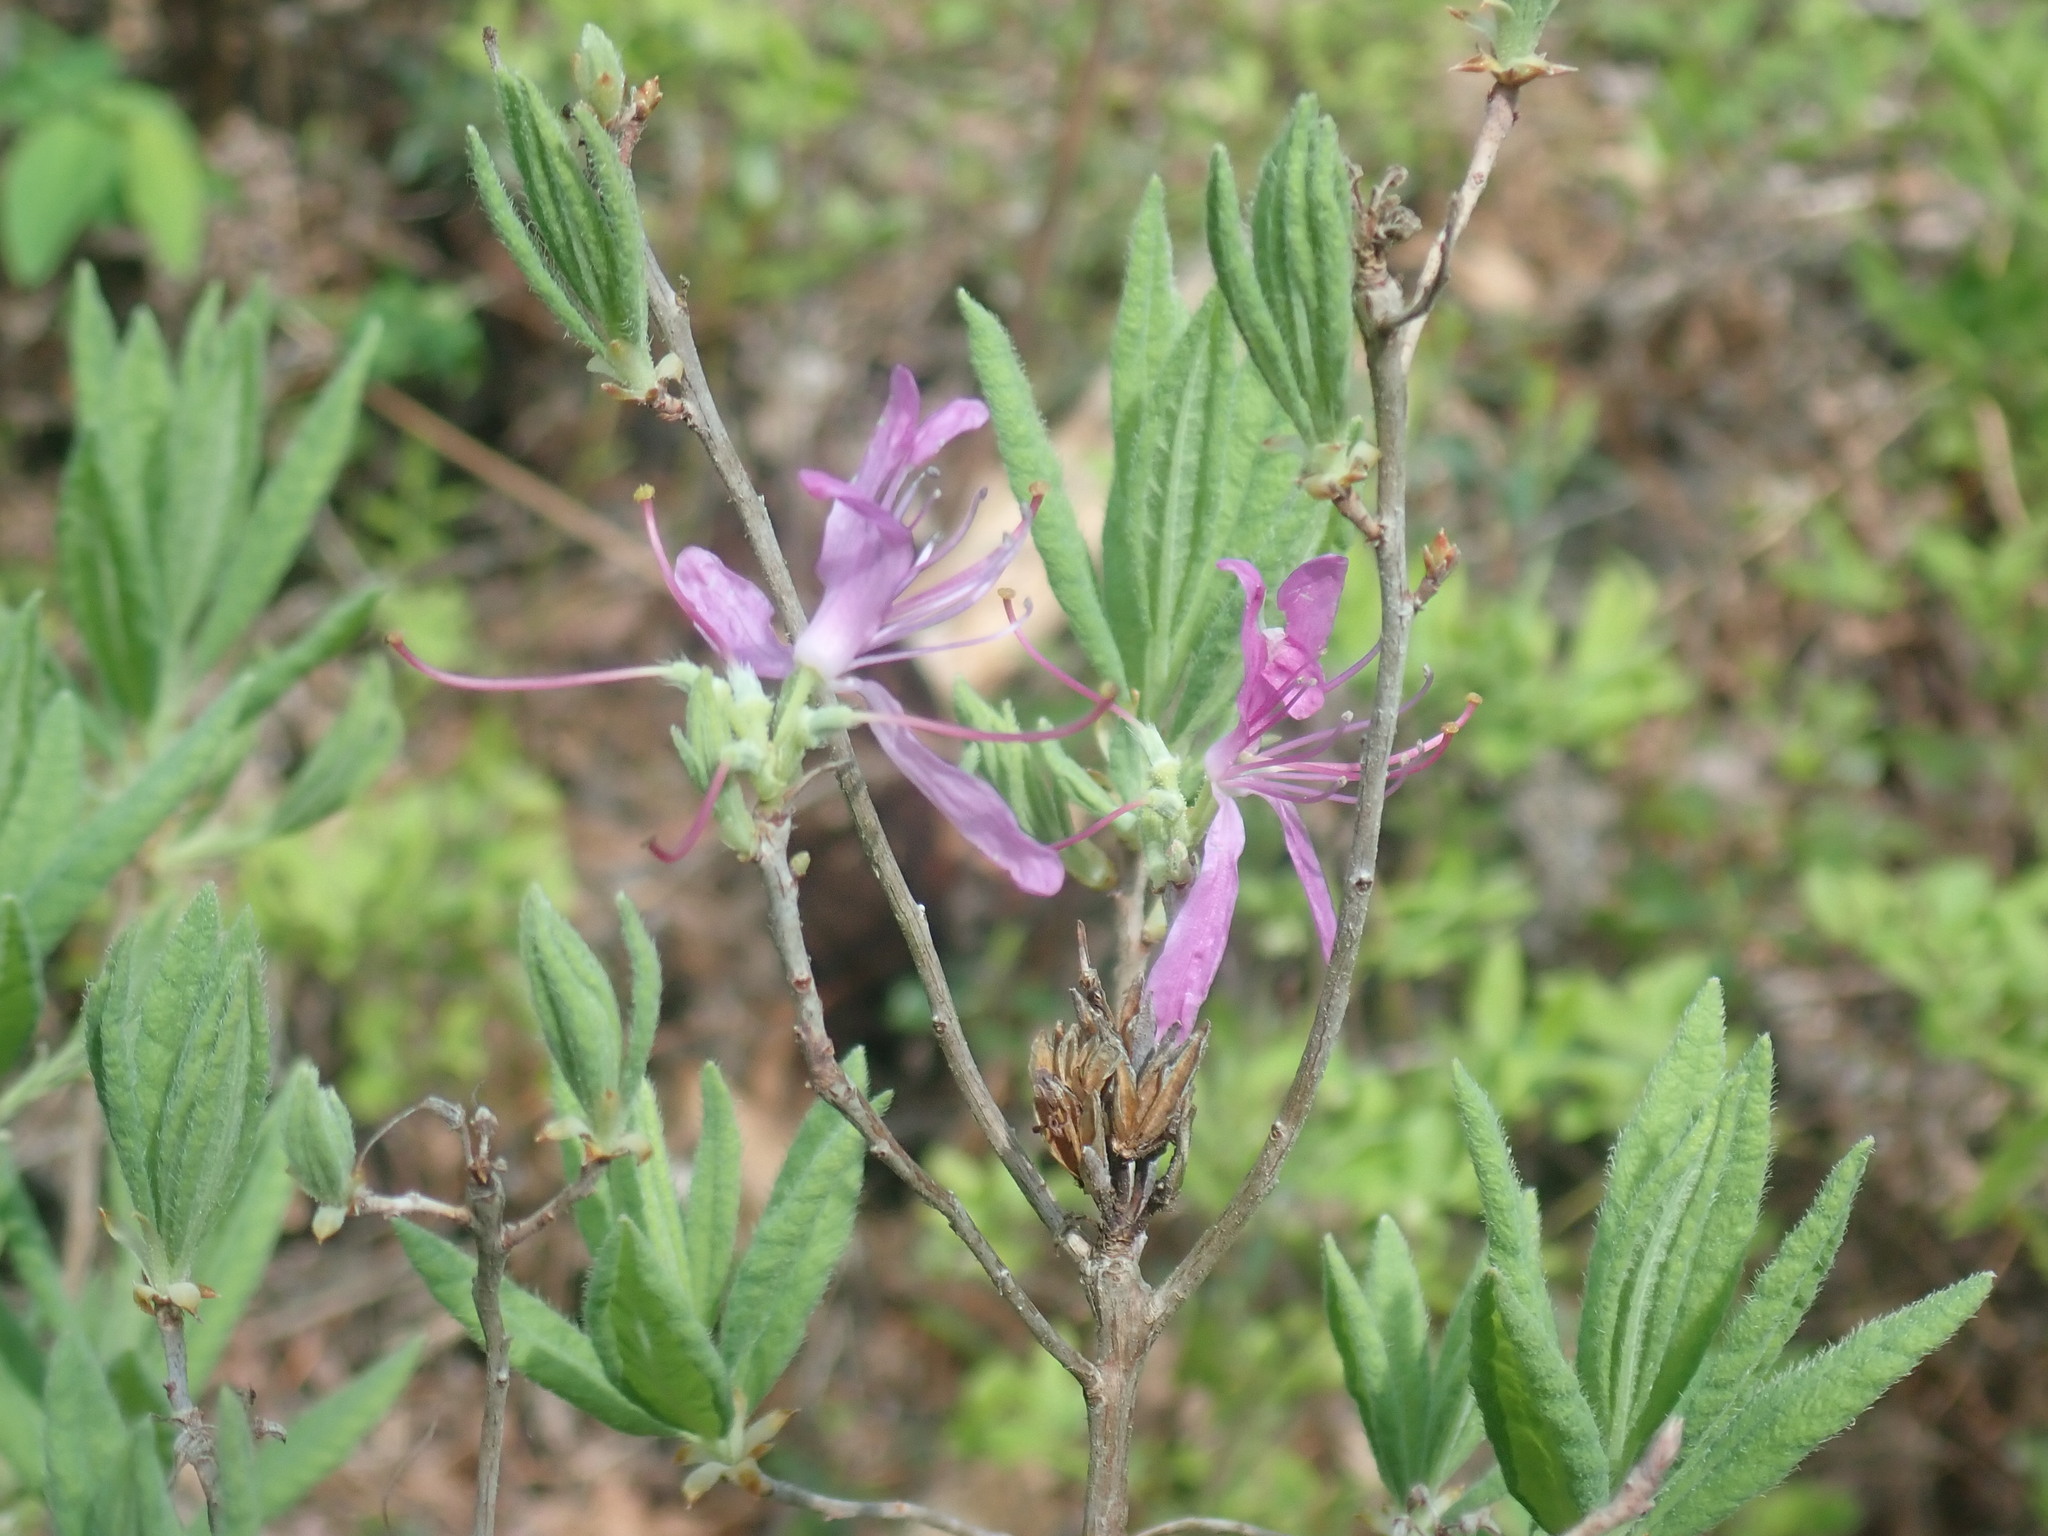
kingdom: Plantae
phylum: Tracheophyta
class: Magnoliopsida
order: Ericales
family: Ericaceae
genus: Rhododendron
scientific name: Rhododendron canadense
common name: Rhodora
